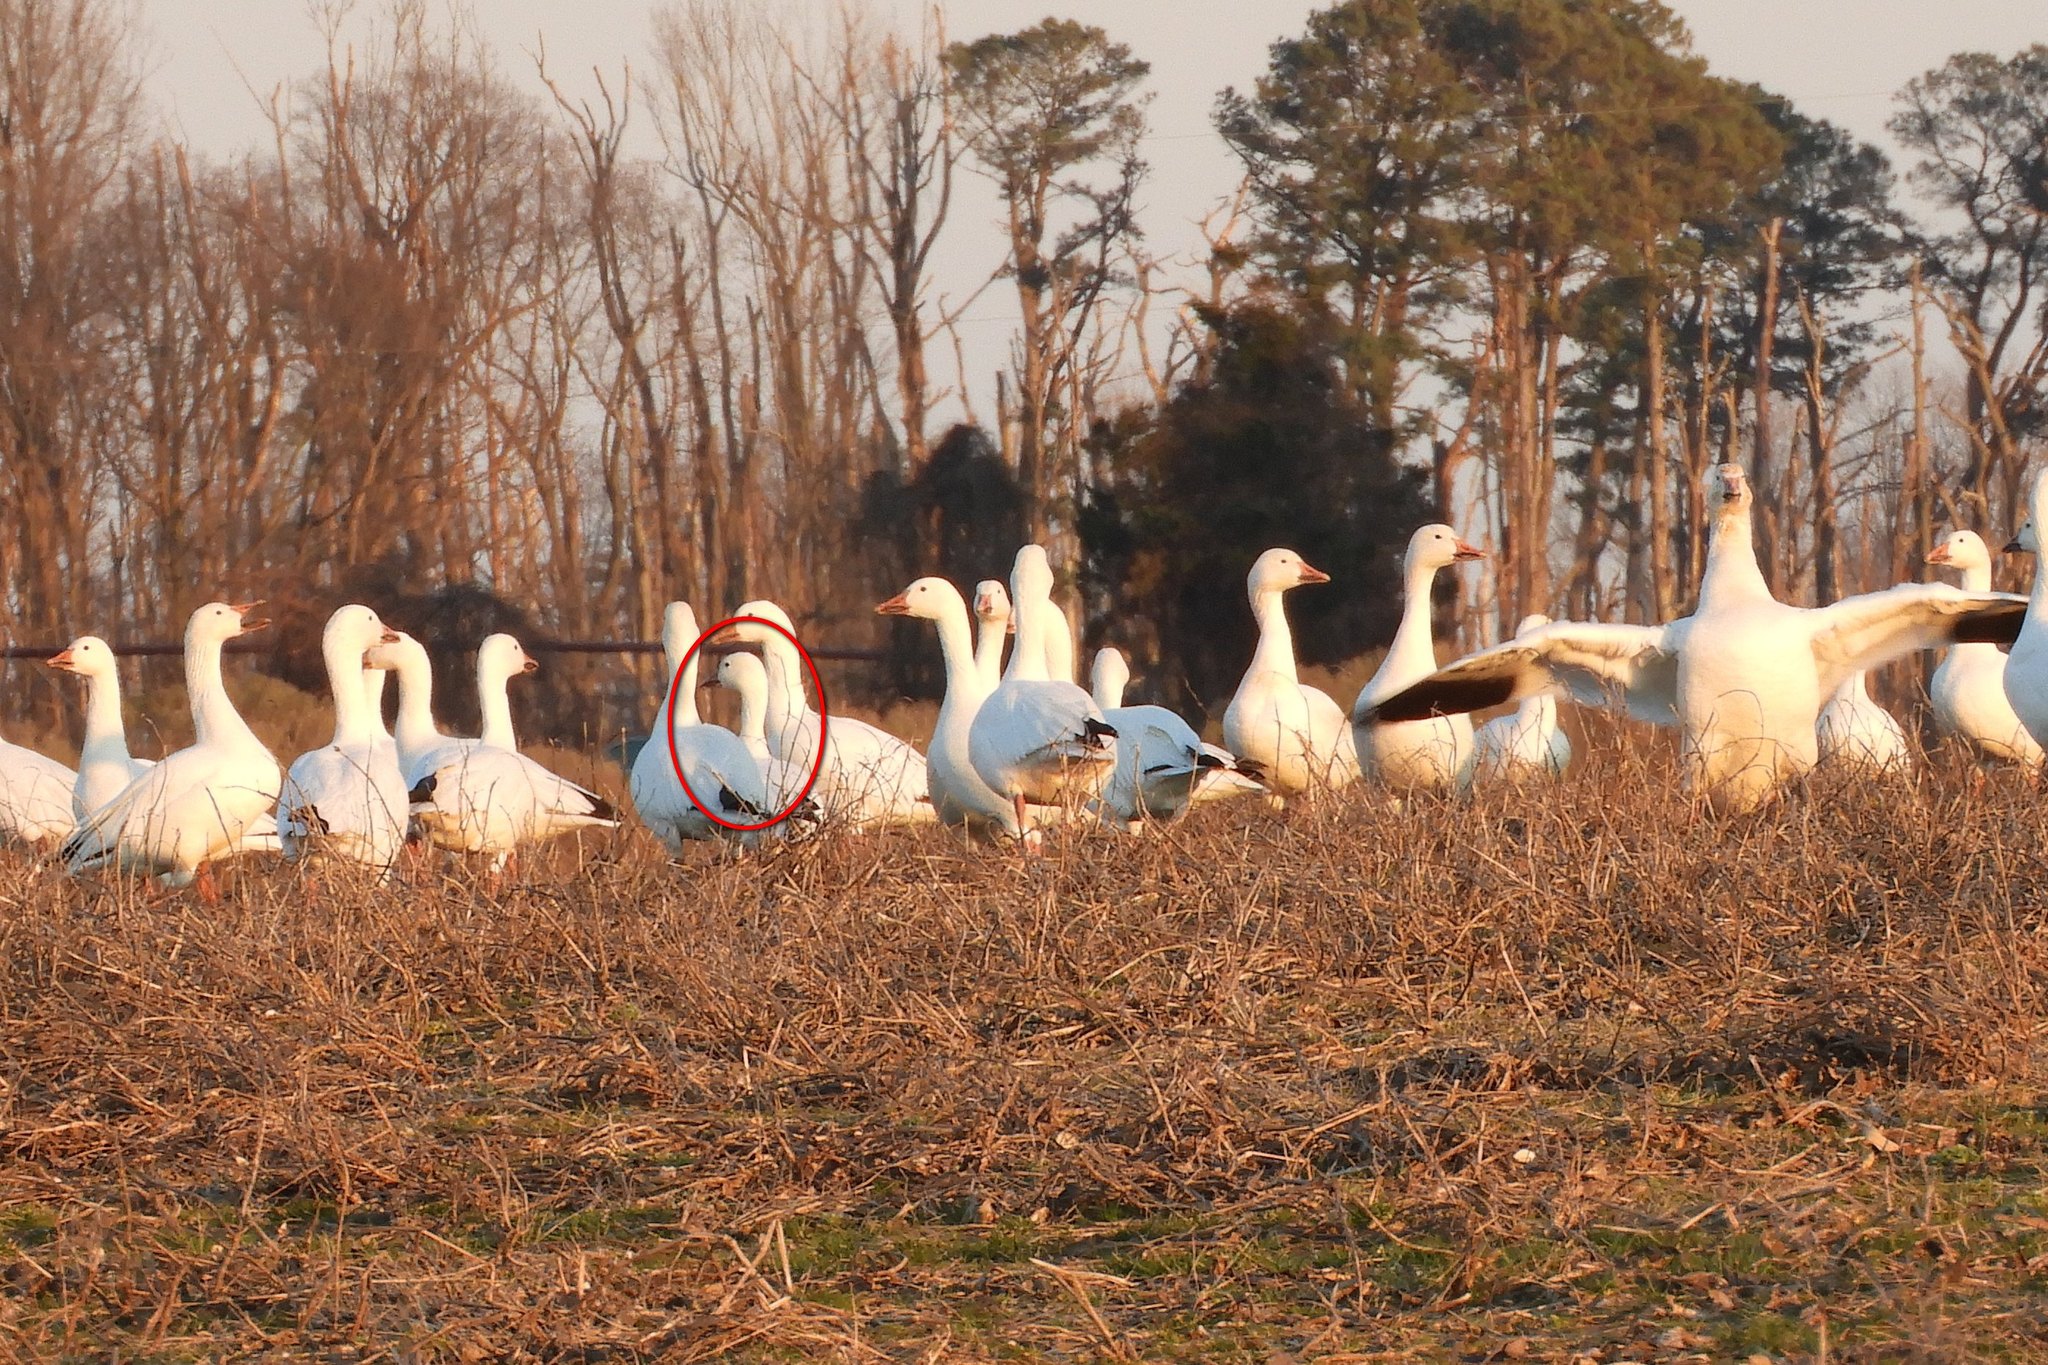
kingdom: Animalia
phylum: Chordata
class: Aves
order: Anseriformes
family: Anatidae
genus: Anser
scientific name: Anser caerulescens
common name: Snow goose
